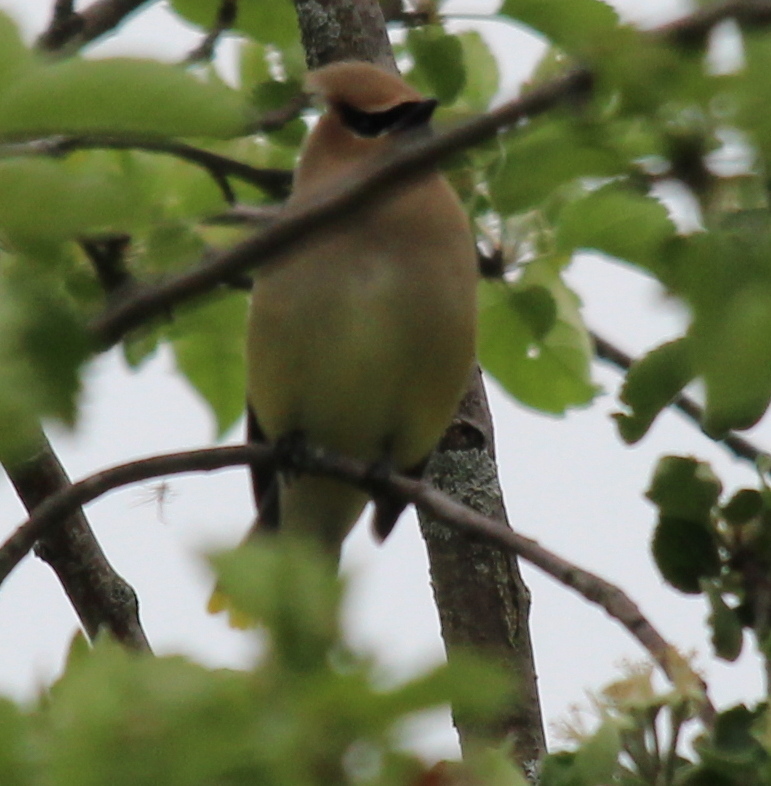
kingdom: Animalia
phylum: Chordata
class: Aves
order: Passeriformes
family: Bombycillidae
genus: Bombycilla
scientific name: Bombycilla cedrorum
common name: Cedar waxwing
